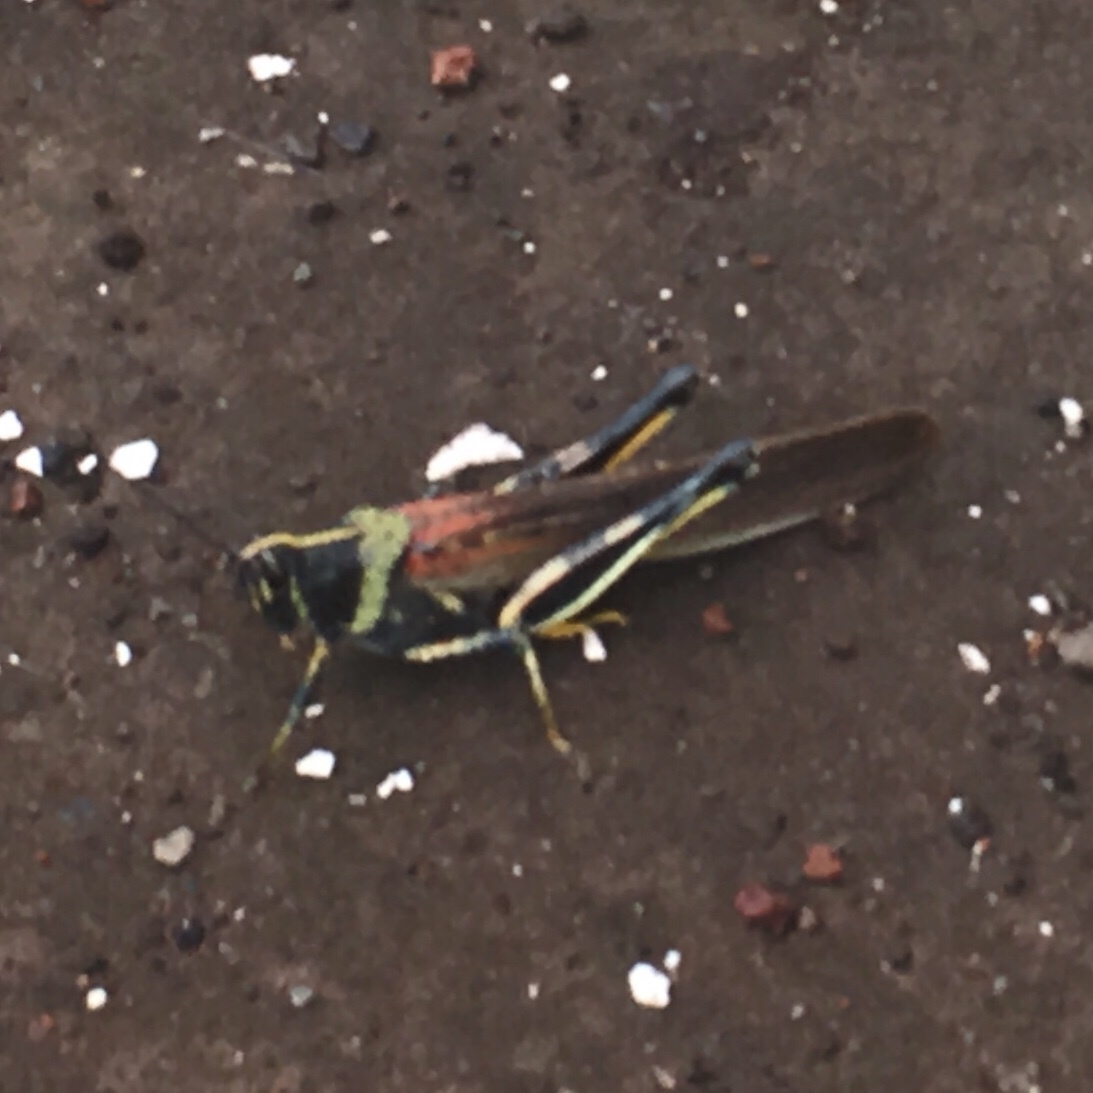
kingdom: Animalia
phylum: Arthropoda
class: Insecta
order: Orthoptera
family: Acrididae
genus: Schistocerca
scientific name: Schistocerca melanocera
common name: Large painted locust
